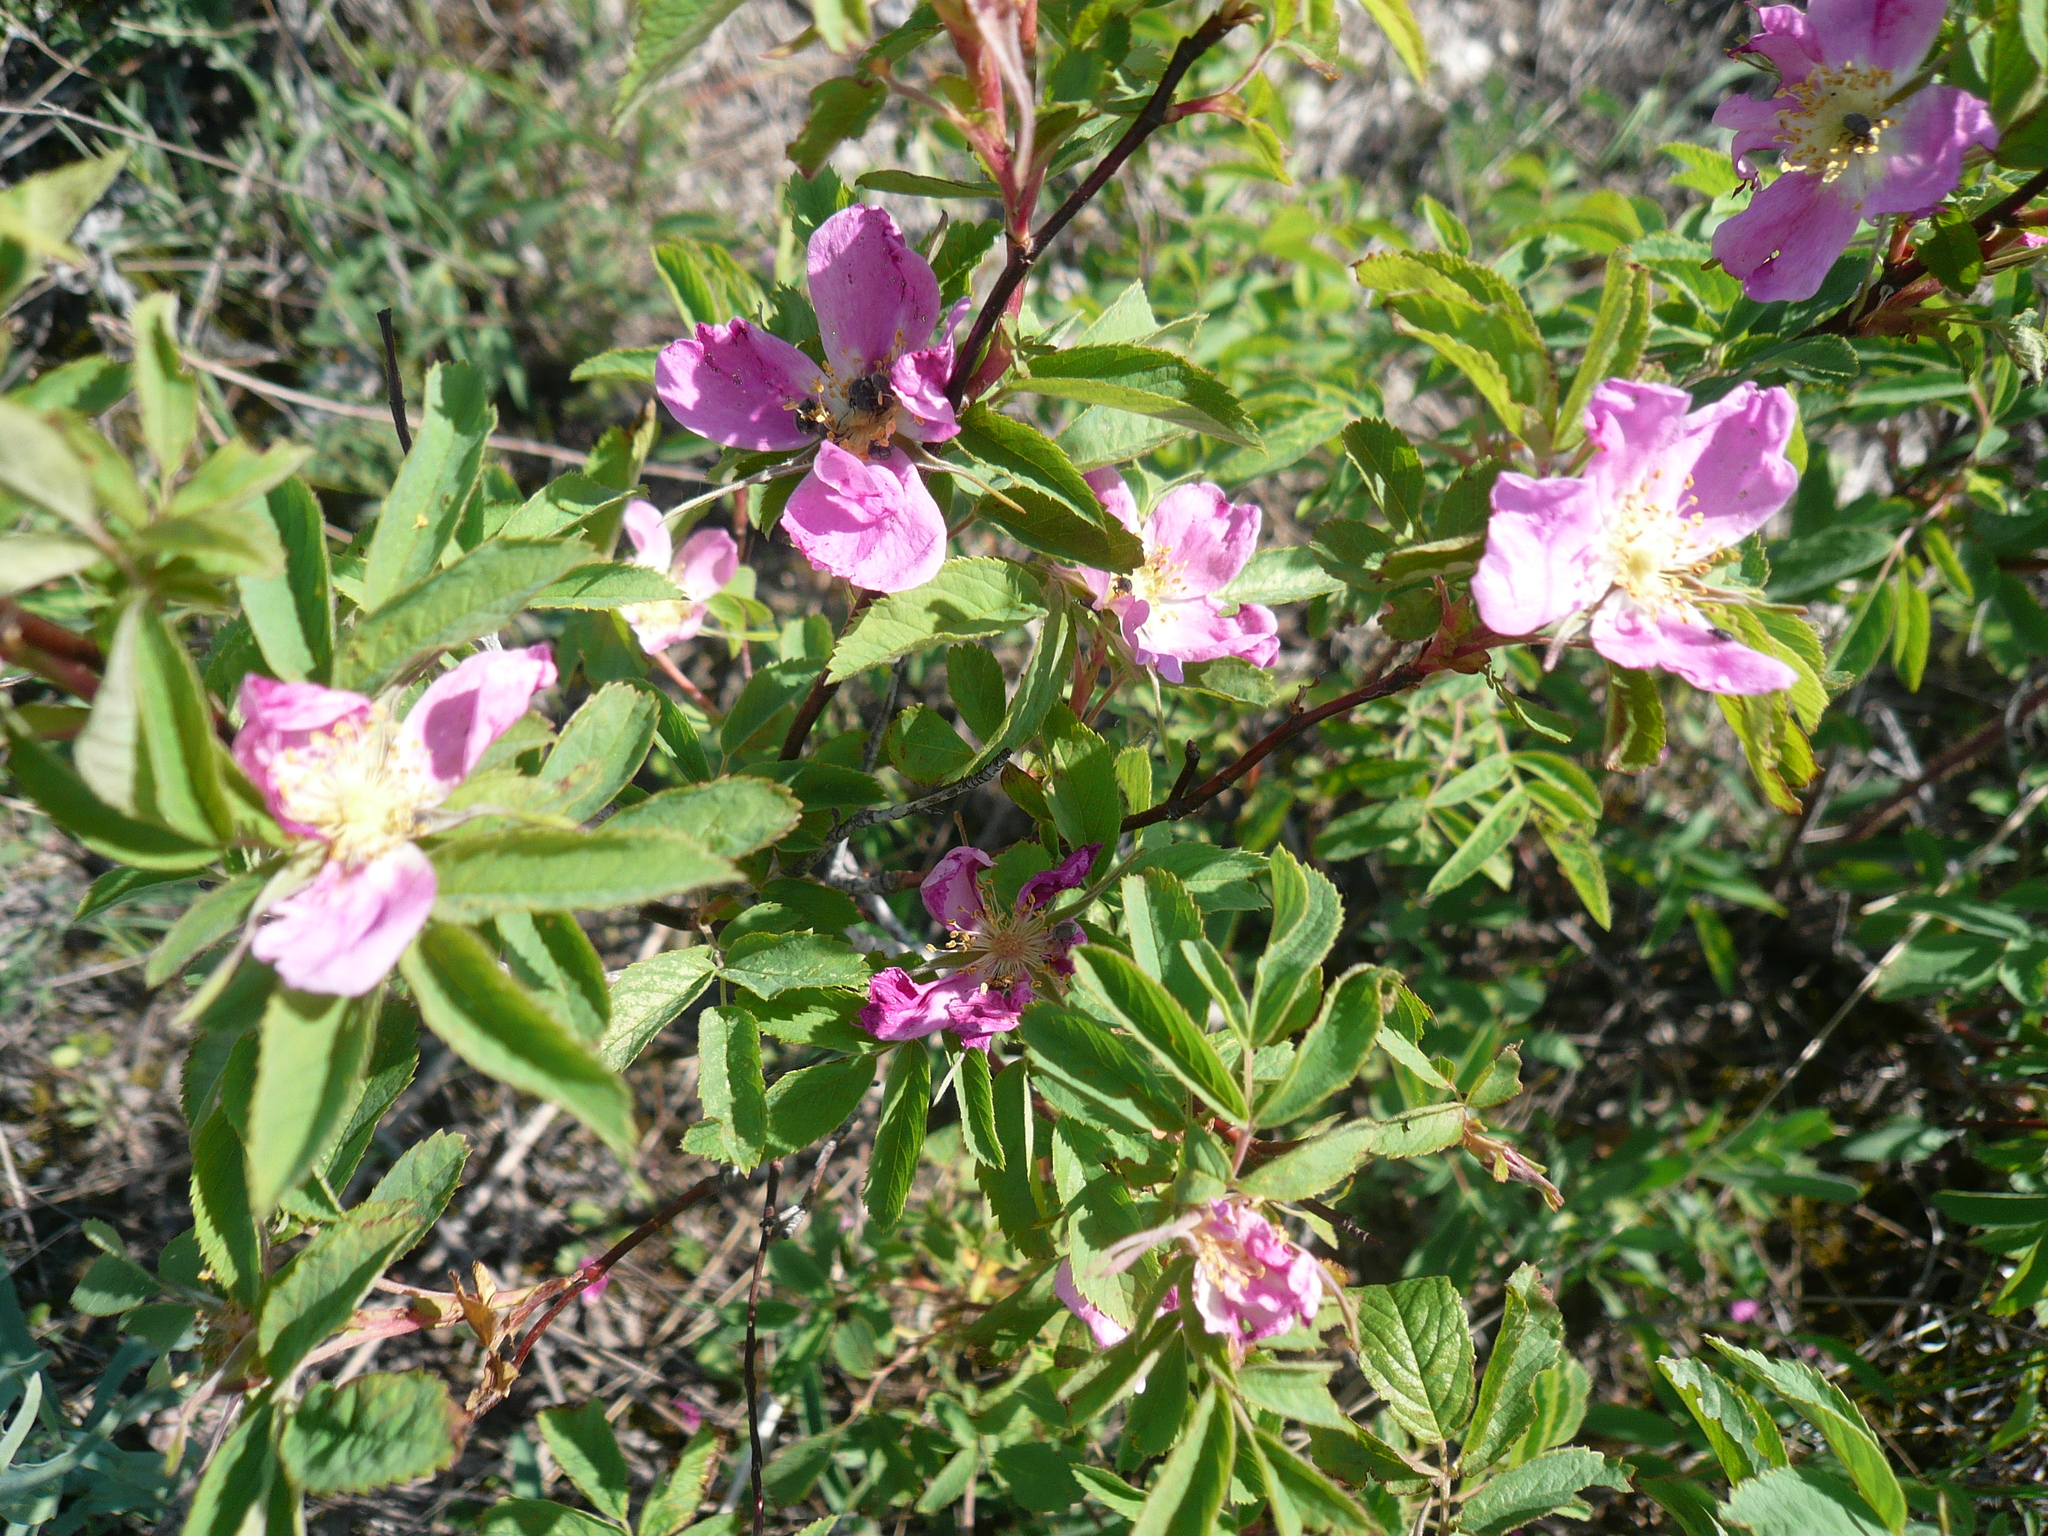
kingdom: Plantae
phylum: Tracheophyta
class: Magnoliopsida
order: Rosales
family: Rosaceae
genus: Rosa
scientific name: Rosa majalis
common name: Cinnamon rose
